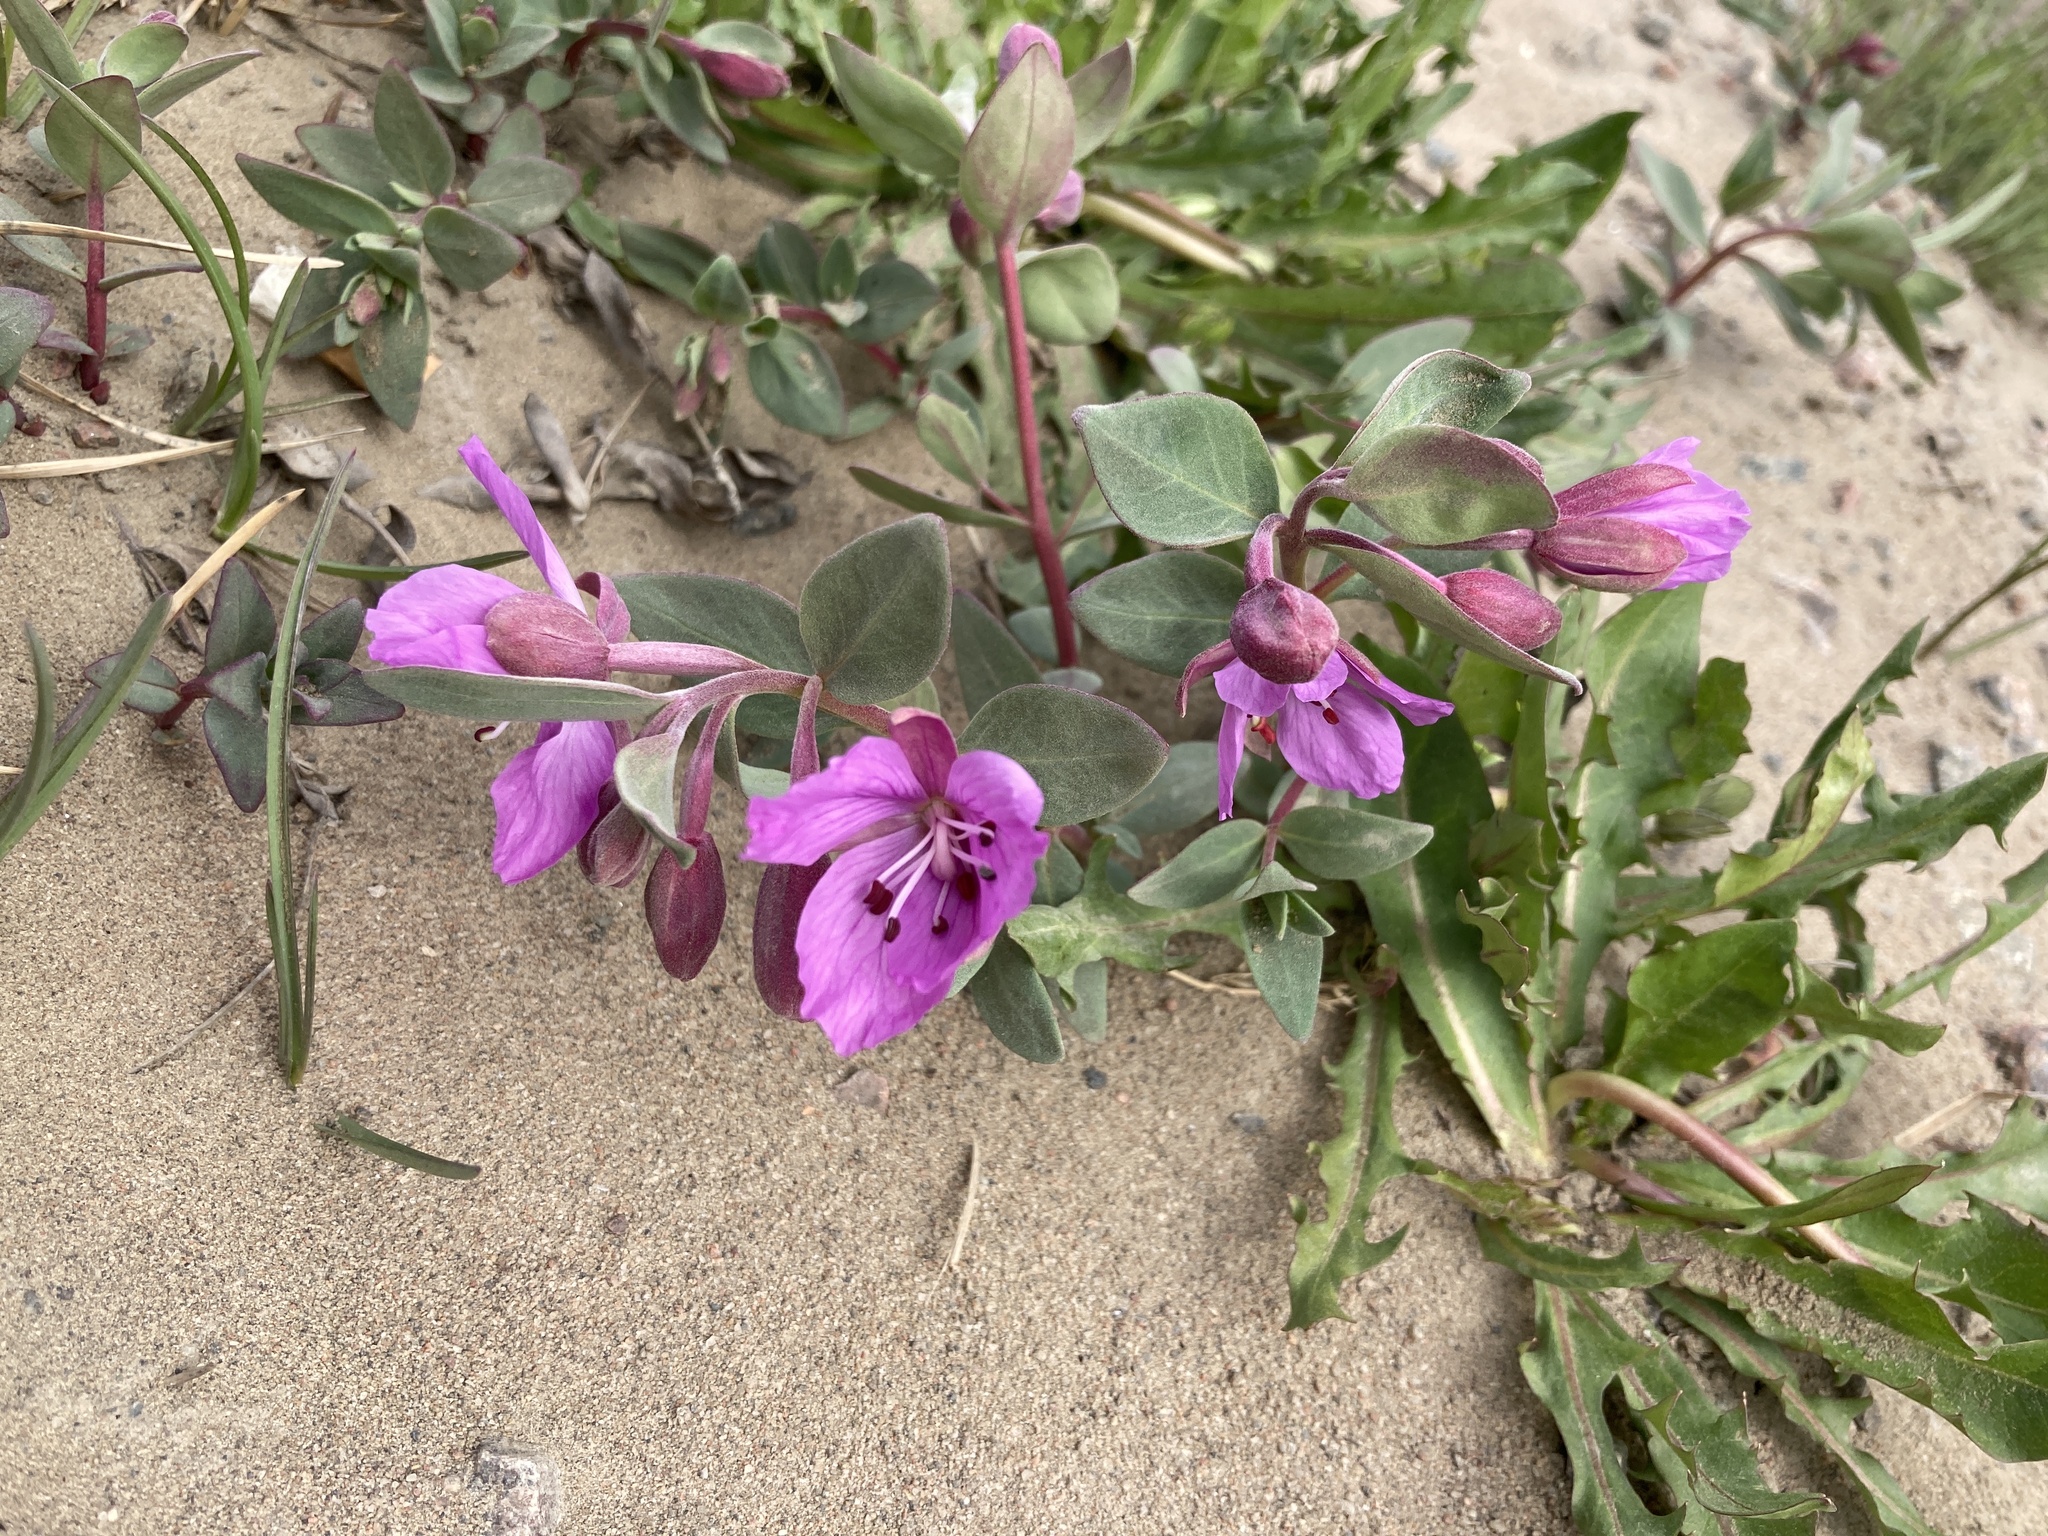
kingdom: Plantae
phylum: Tracheophyta
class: Magnoliopsida
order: Myrtales
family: Onagraceae
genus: Chamaenerion
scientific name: Chamaenerion latifolium
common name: Dwarf fireweed
